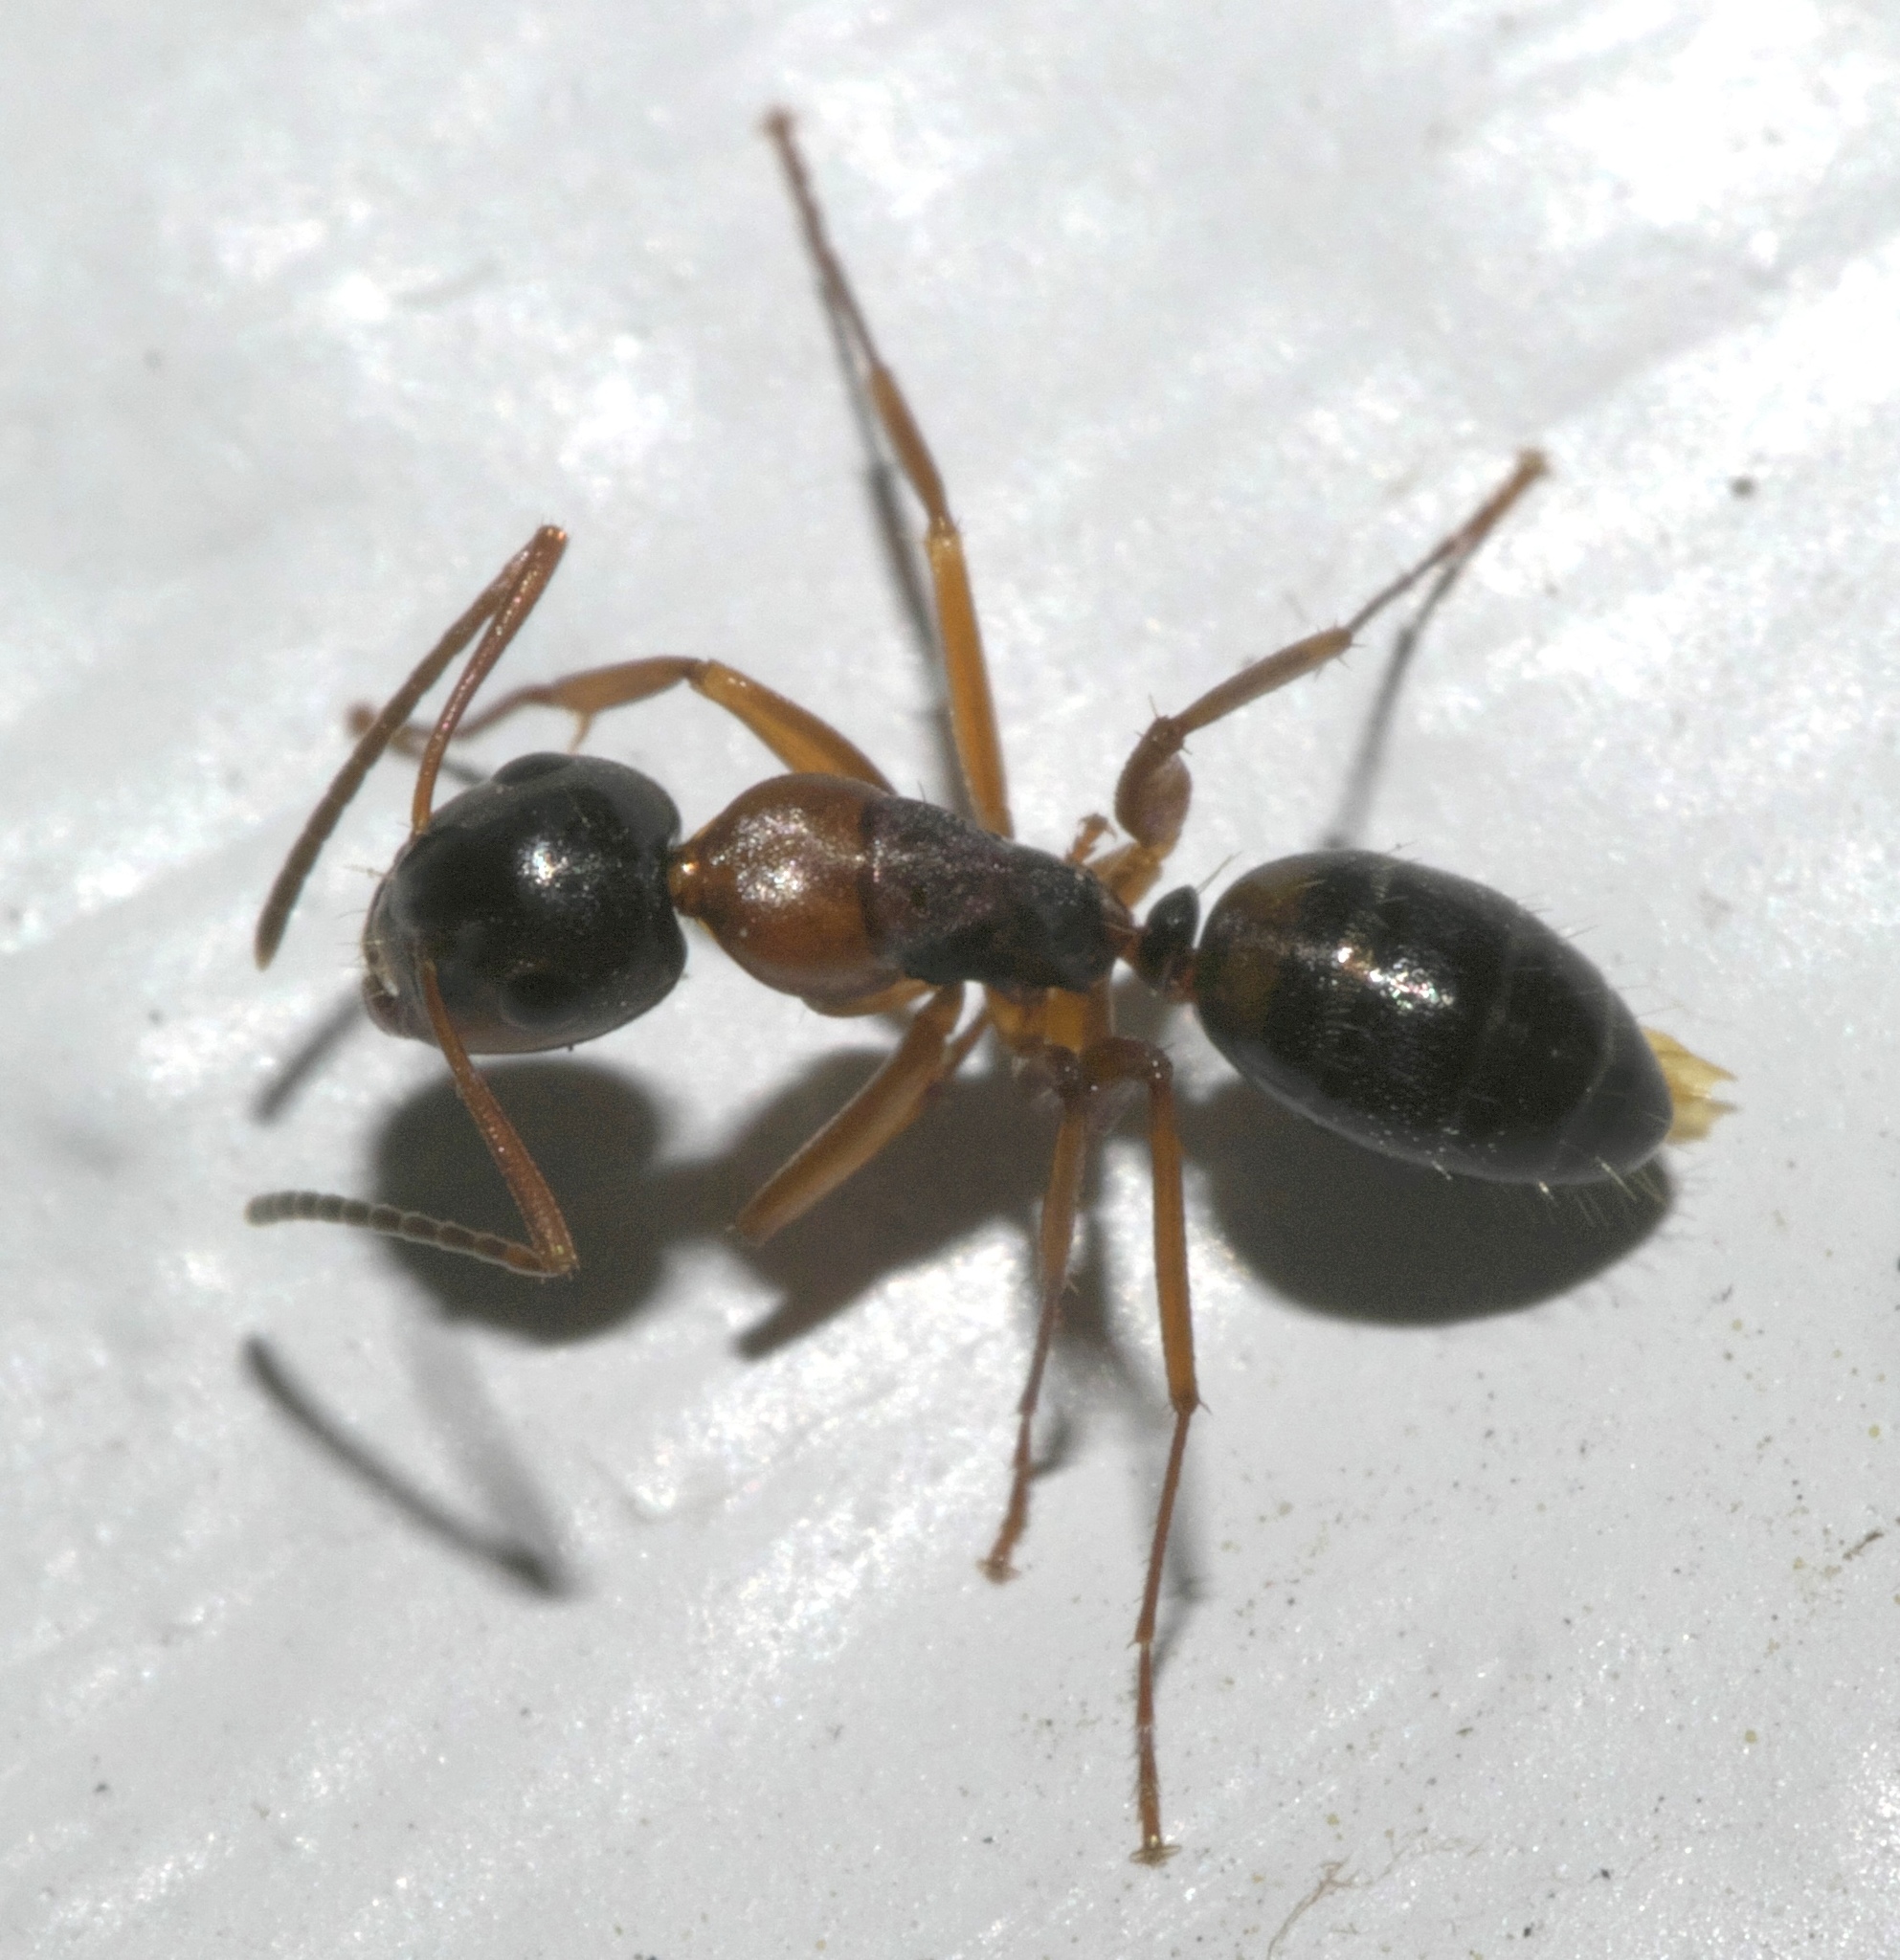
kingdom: Animalia
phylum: Arthropoda
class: Insecta
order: Hymenoptera
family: Formicidae
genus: Camponotus
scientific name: Camponotus nearcticus
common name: Smaller carpenter ant
